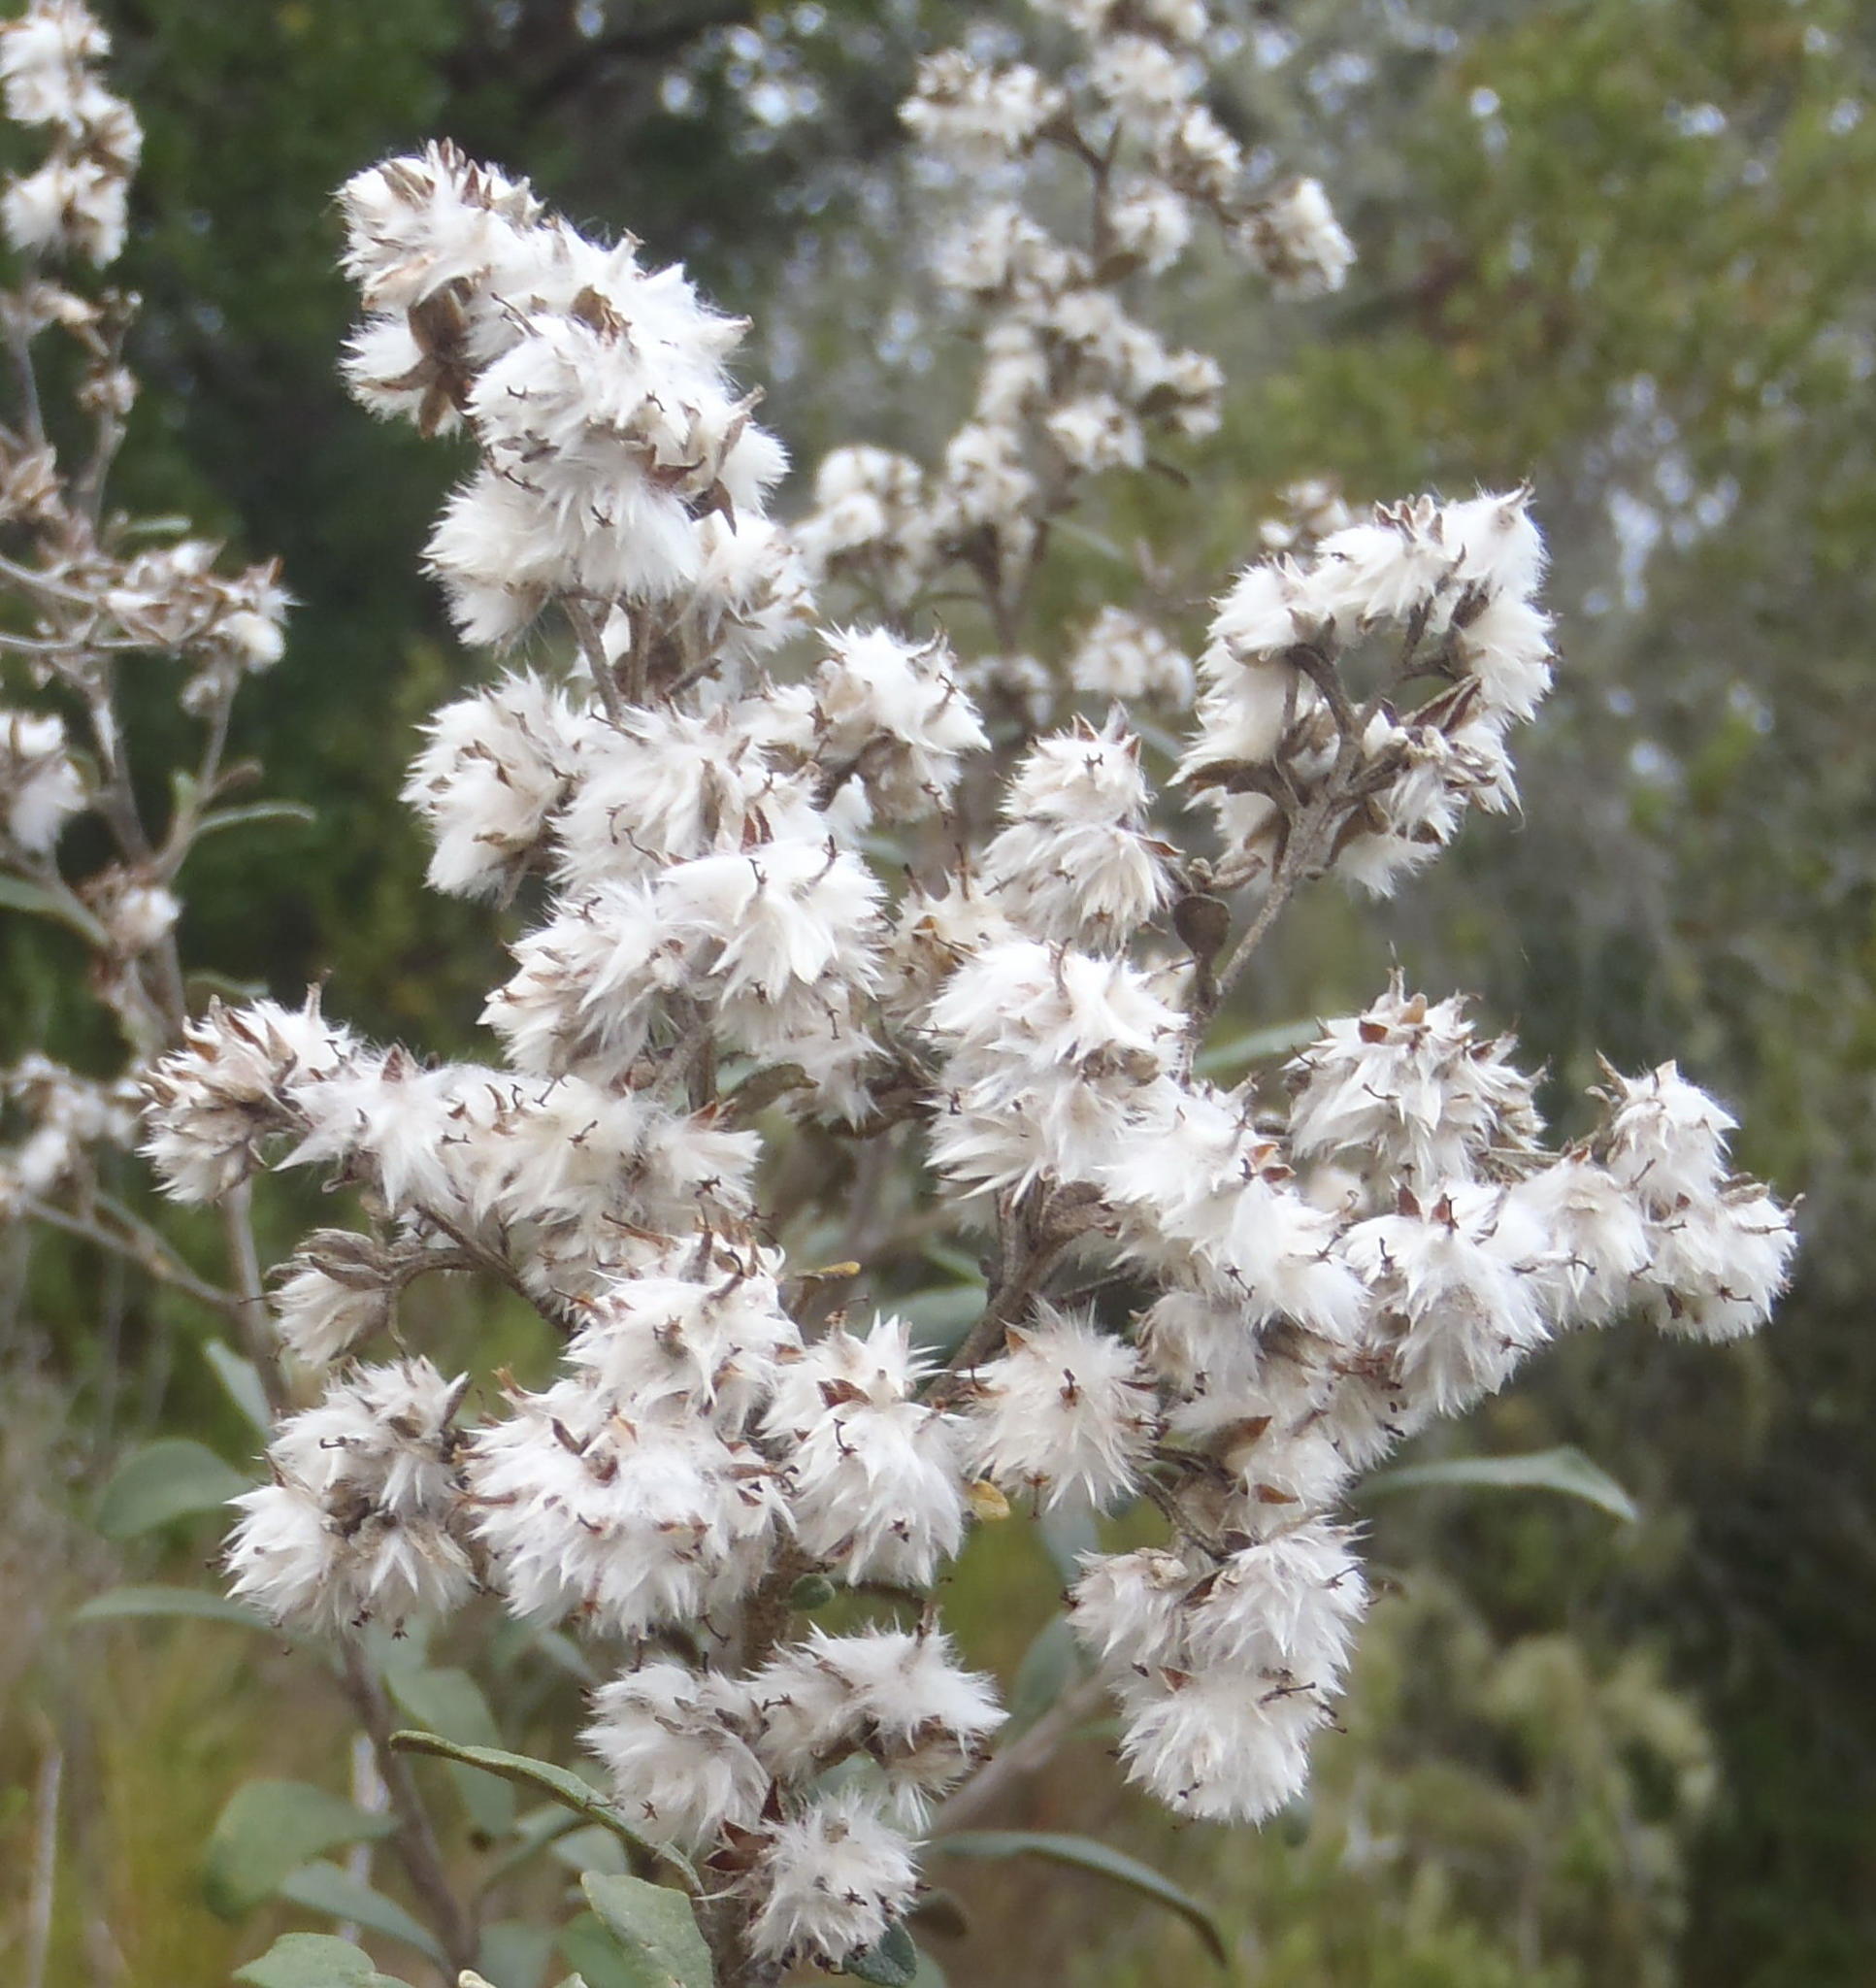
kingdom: Plantae
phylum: Tracheophyta
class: Magnoliopsida
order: Asterales
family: Asteraceae
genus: Tarchonanthus
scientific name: Tarchonanthus littoralis
